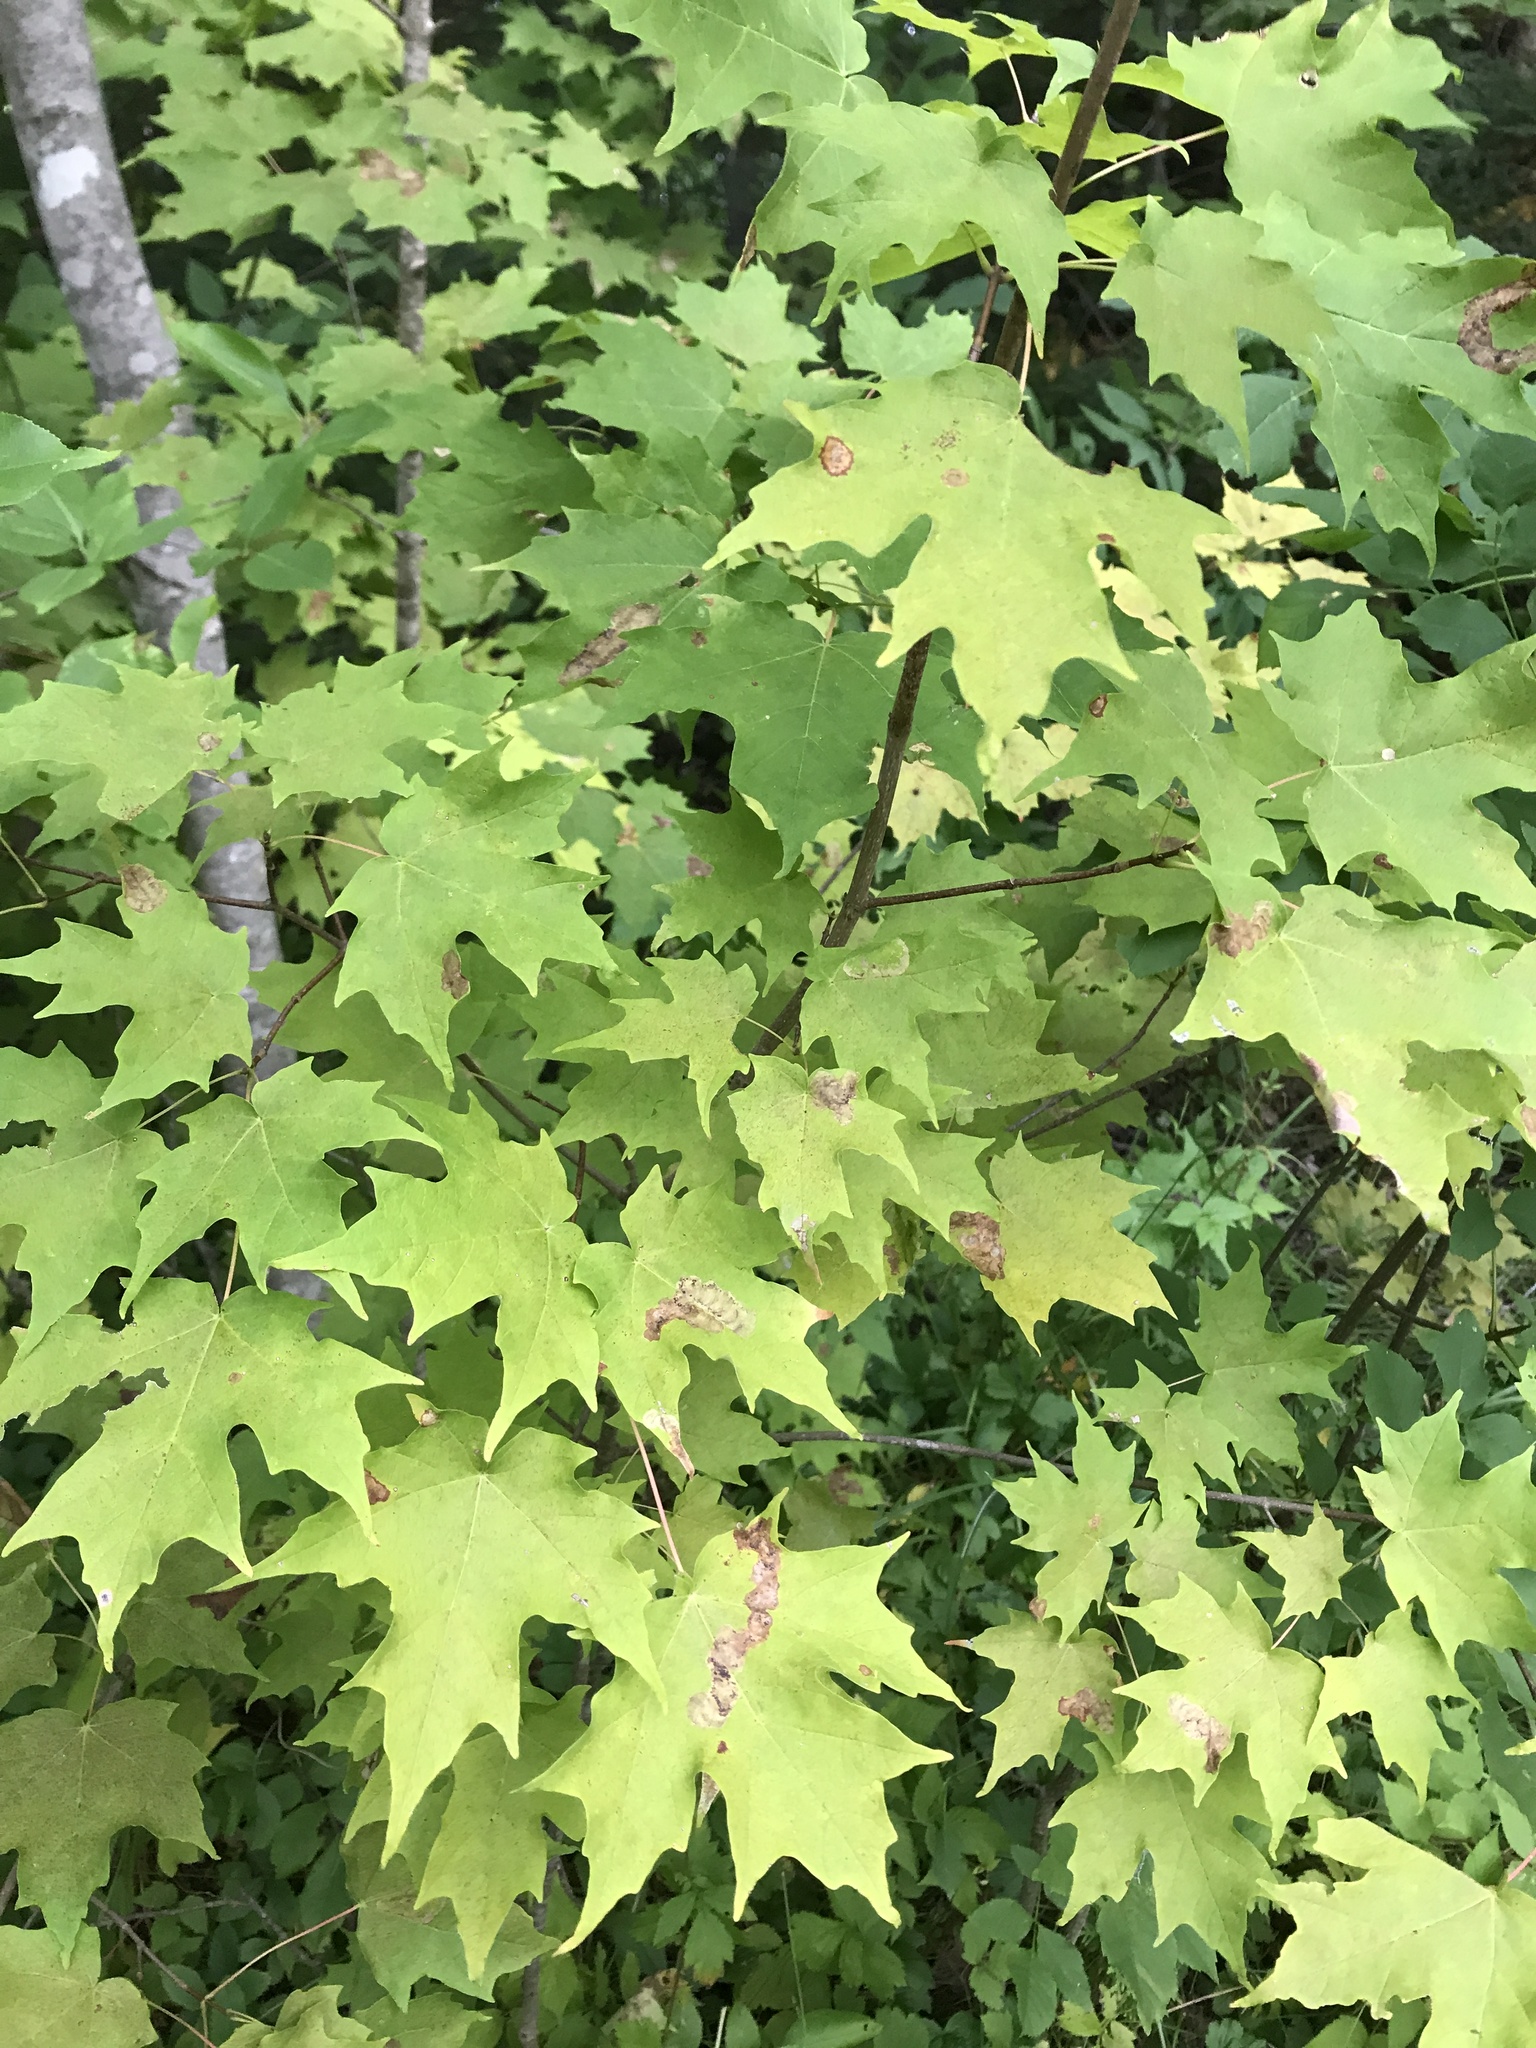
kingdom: Plantae
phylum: Tracheophyta
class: Magnoliopsida
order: Sapindales
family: Sapindaceae
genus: Acer
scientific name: Acer saccharum
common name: Sugar maple
